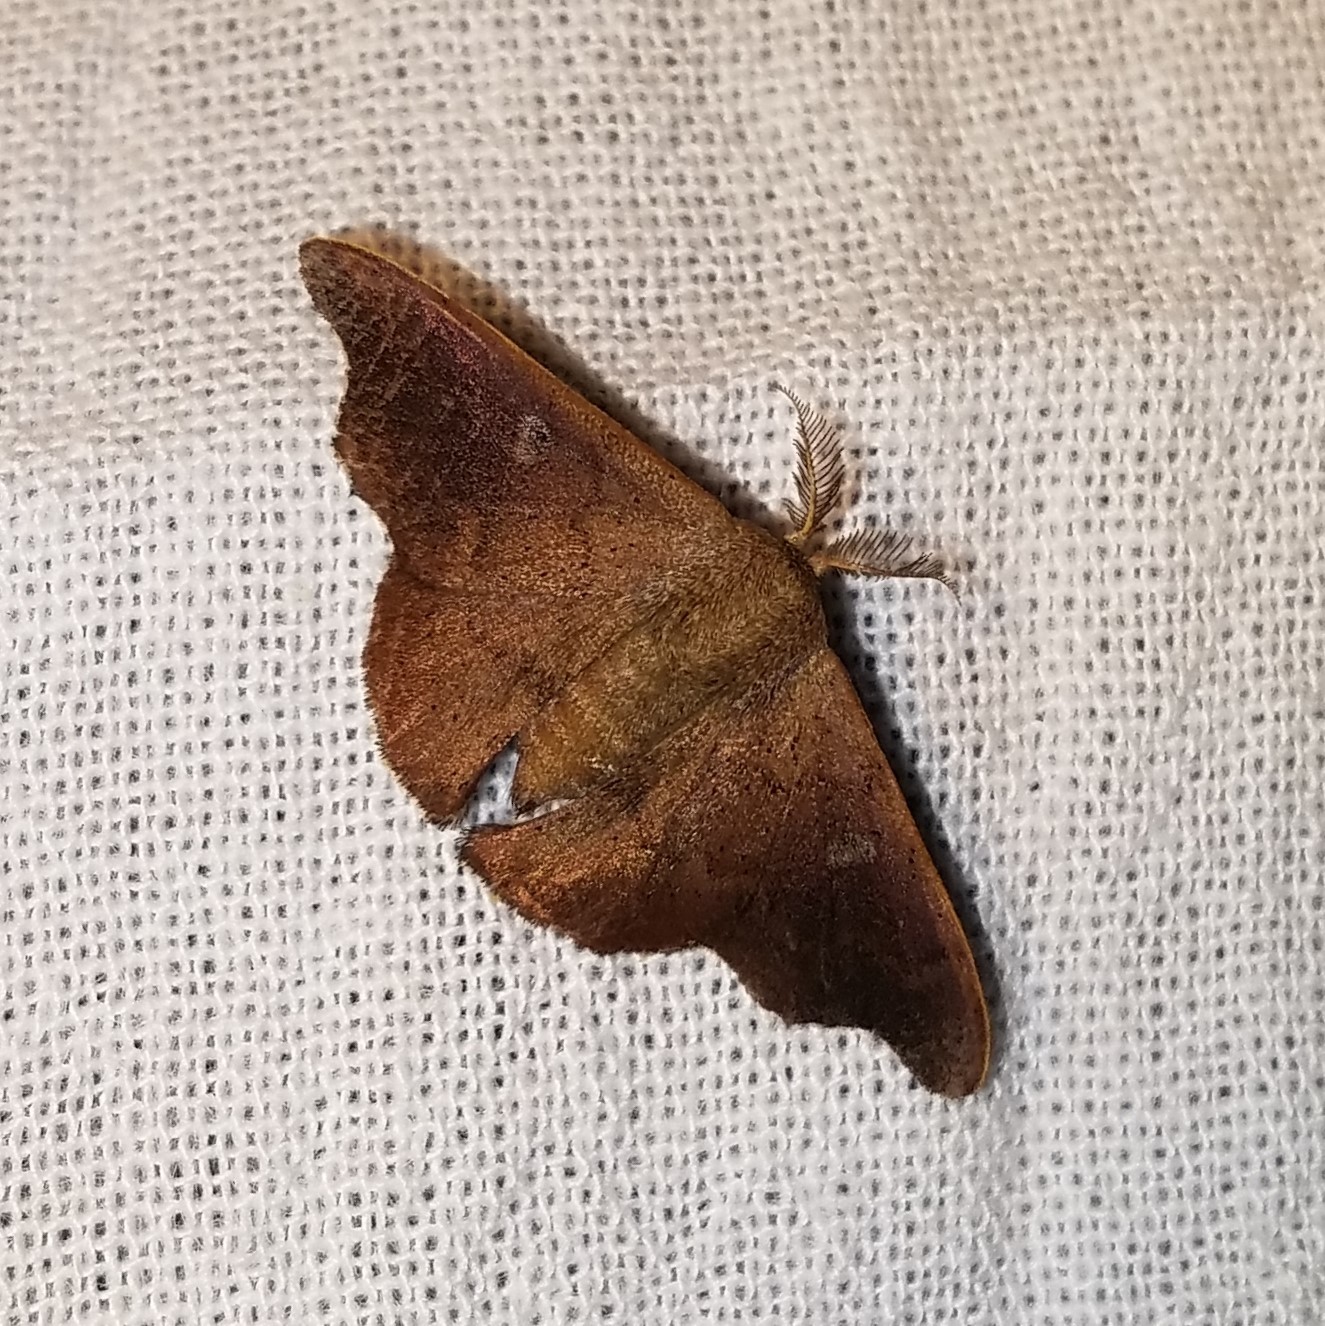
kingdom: Animalia
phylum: Arthropoda
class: Insecta
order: Lepidoptera
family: Mimallonidae
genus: Lacosoma
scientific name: Lacosoma chiridota
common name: Scalloped sack-bearer moth
